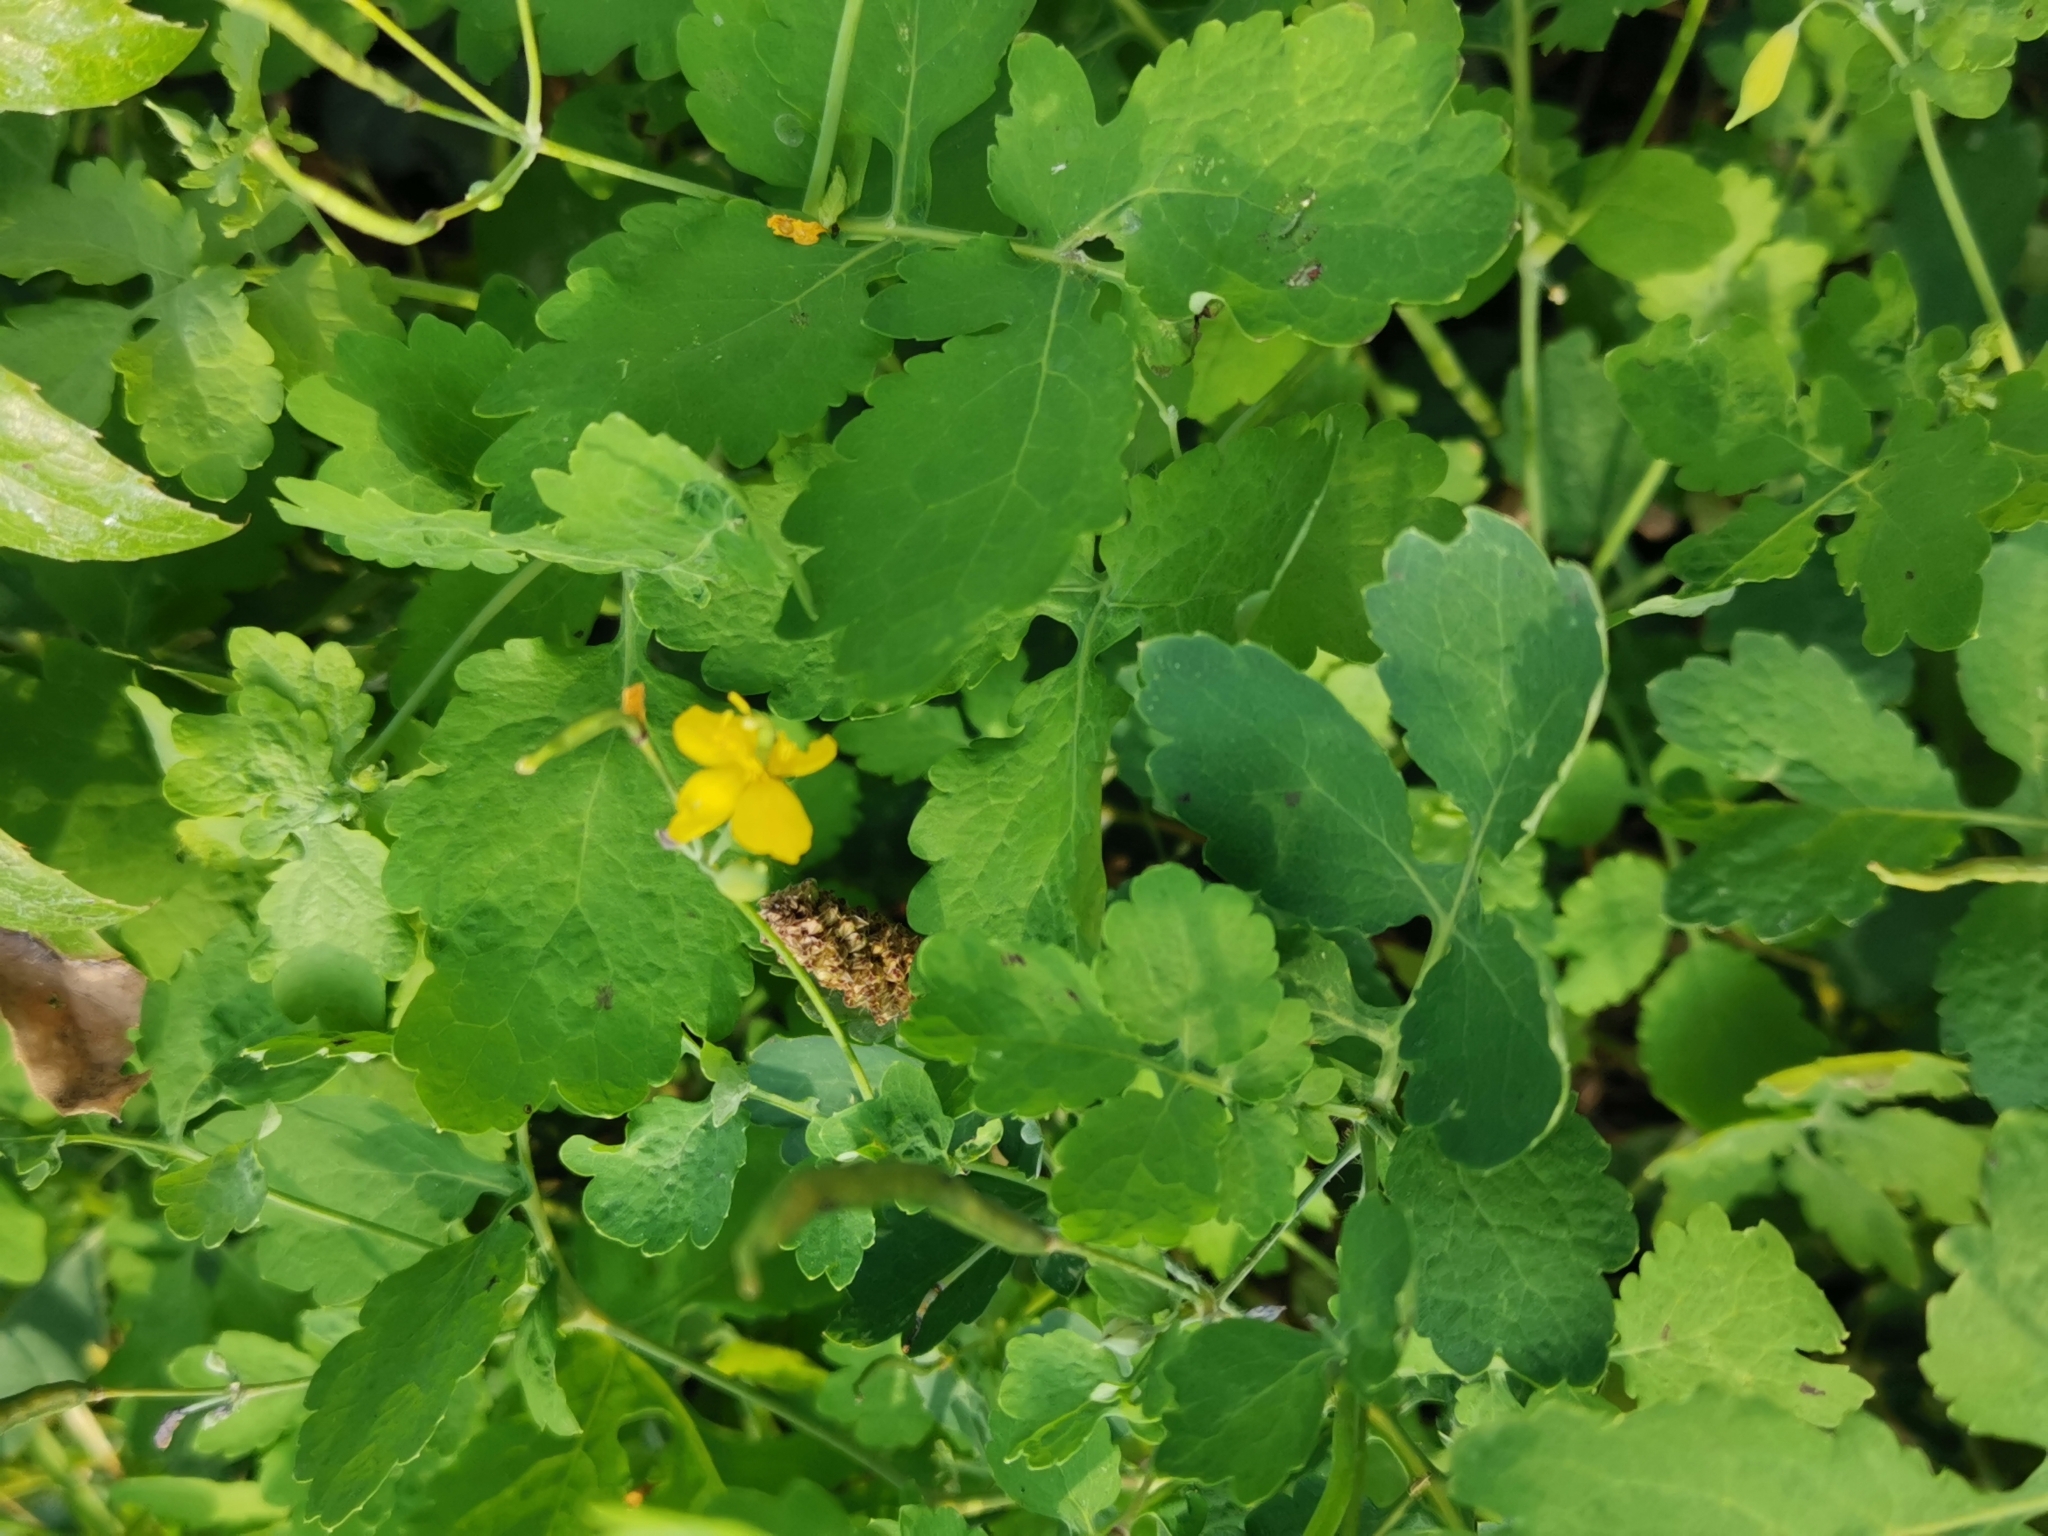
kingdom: Plantae
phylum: Tracheophyta
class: Magnoliopsida
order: Ranunculales
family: Papaveraceae
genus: Chelidonium
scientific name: Chelidonium majus
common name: Greater celandine
